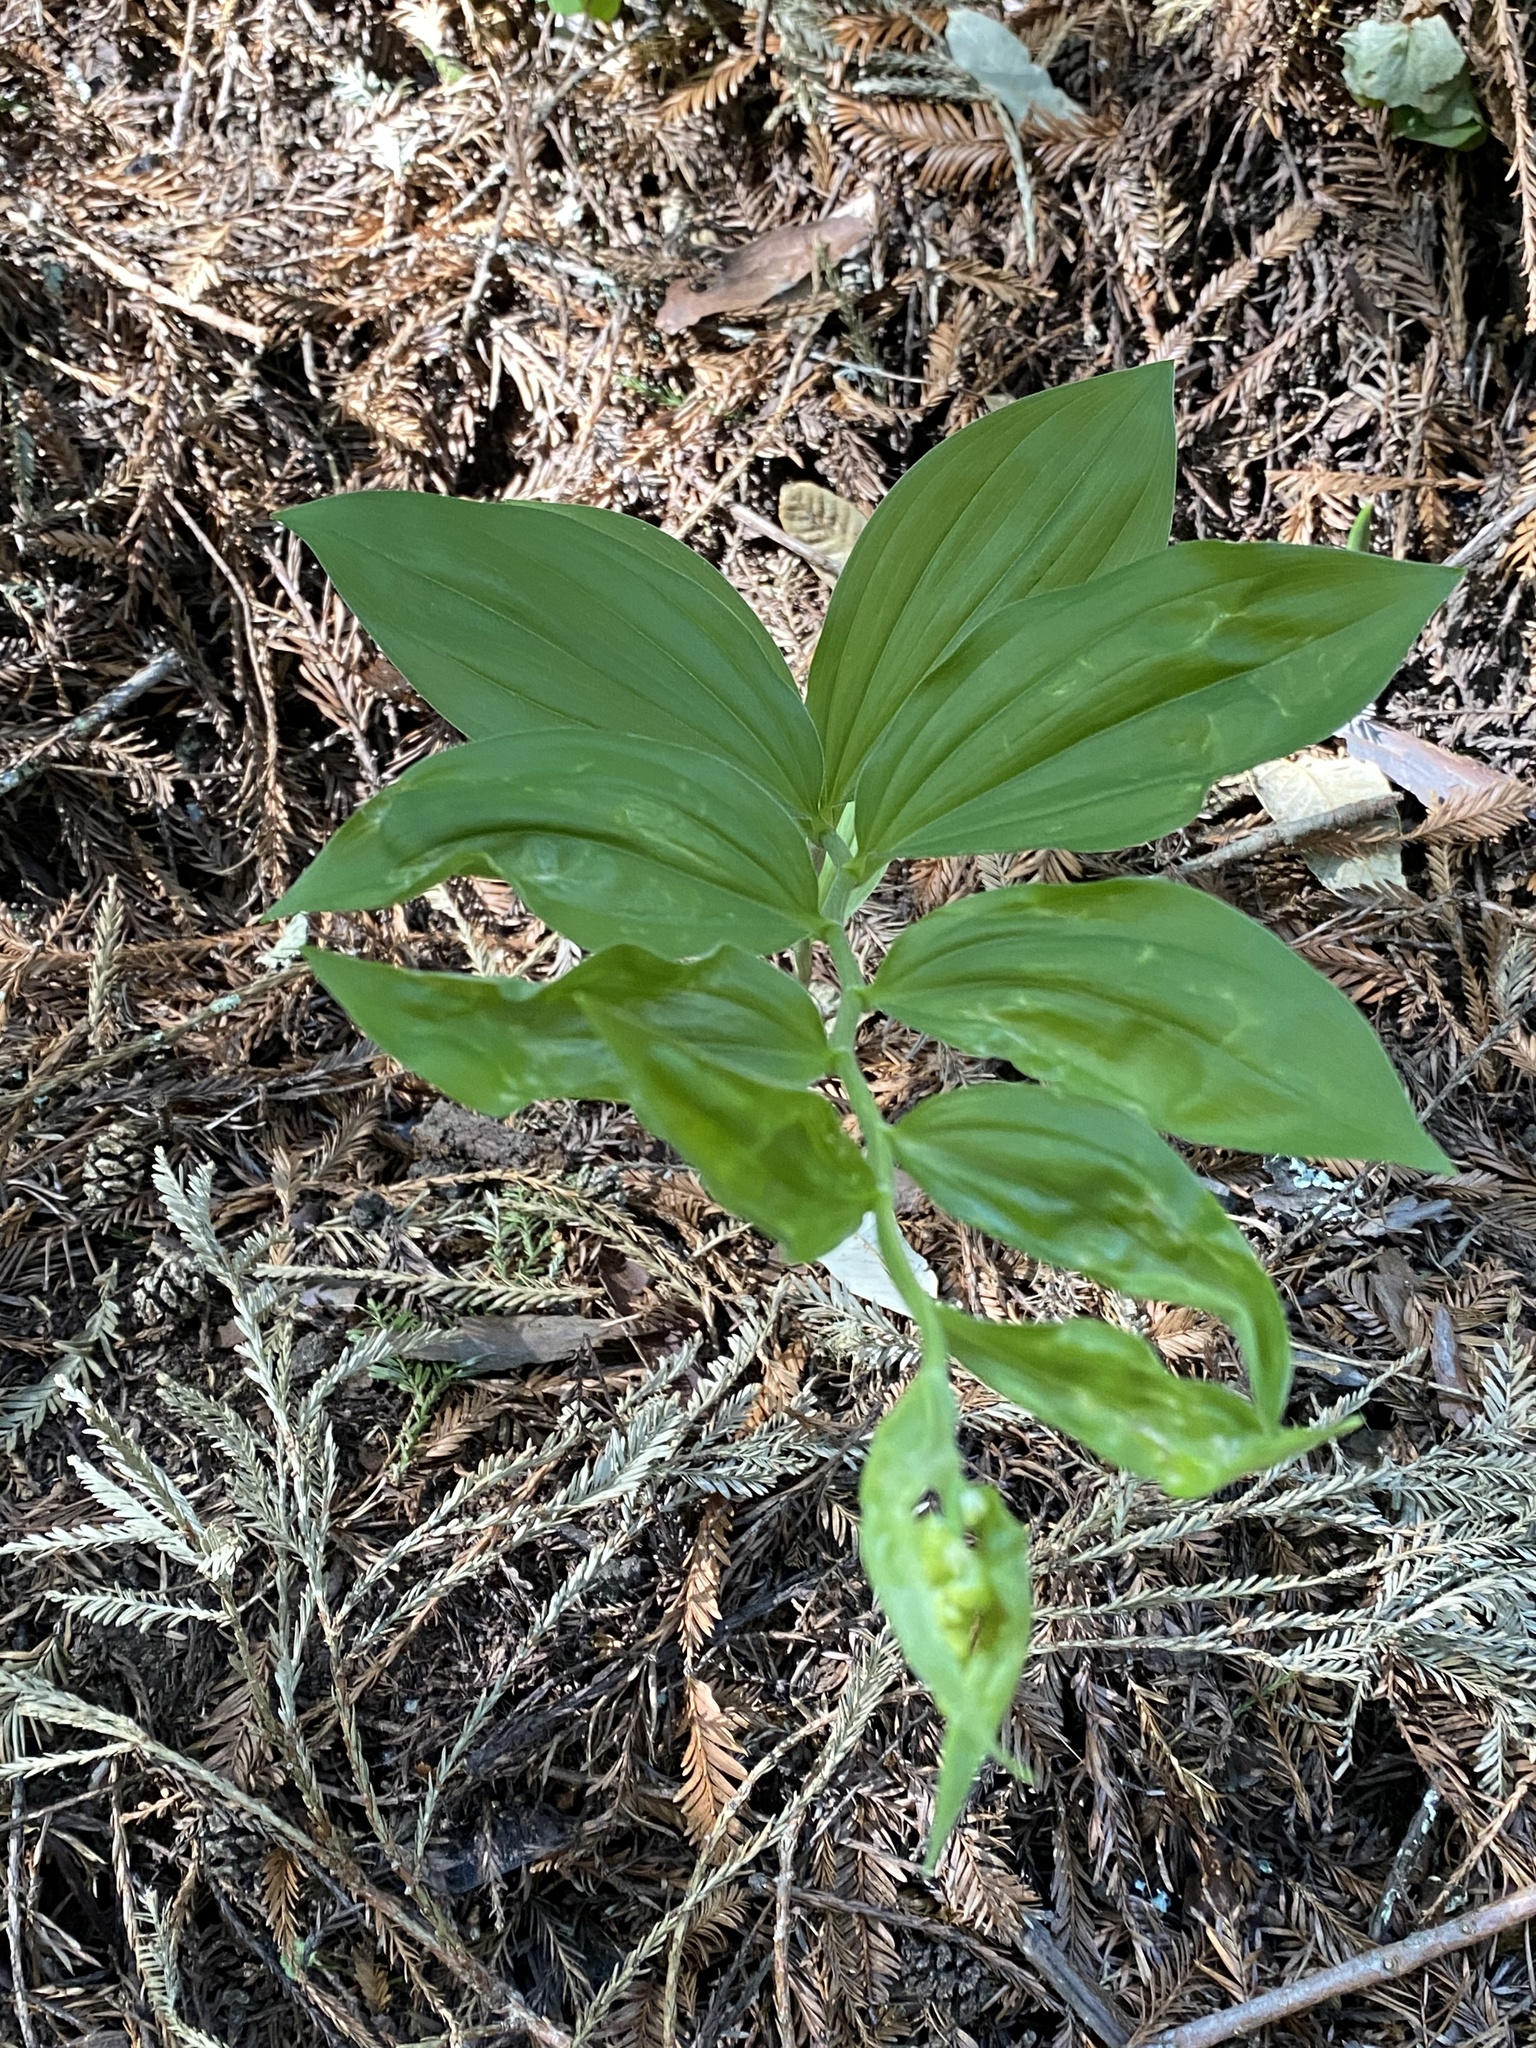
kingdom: Plantae
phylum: Tracheophyta
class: Liliopsida
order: Asparagales
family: Asparagaceae
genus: Maianthemum
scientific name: Maianthemum racemosum
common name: False spikenard
